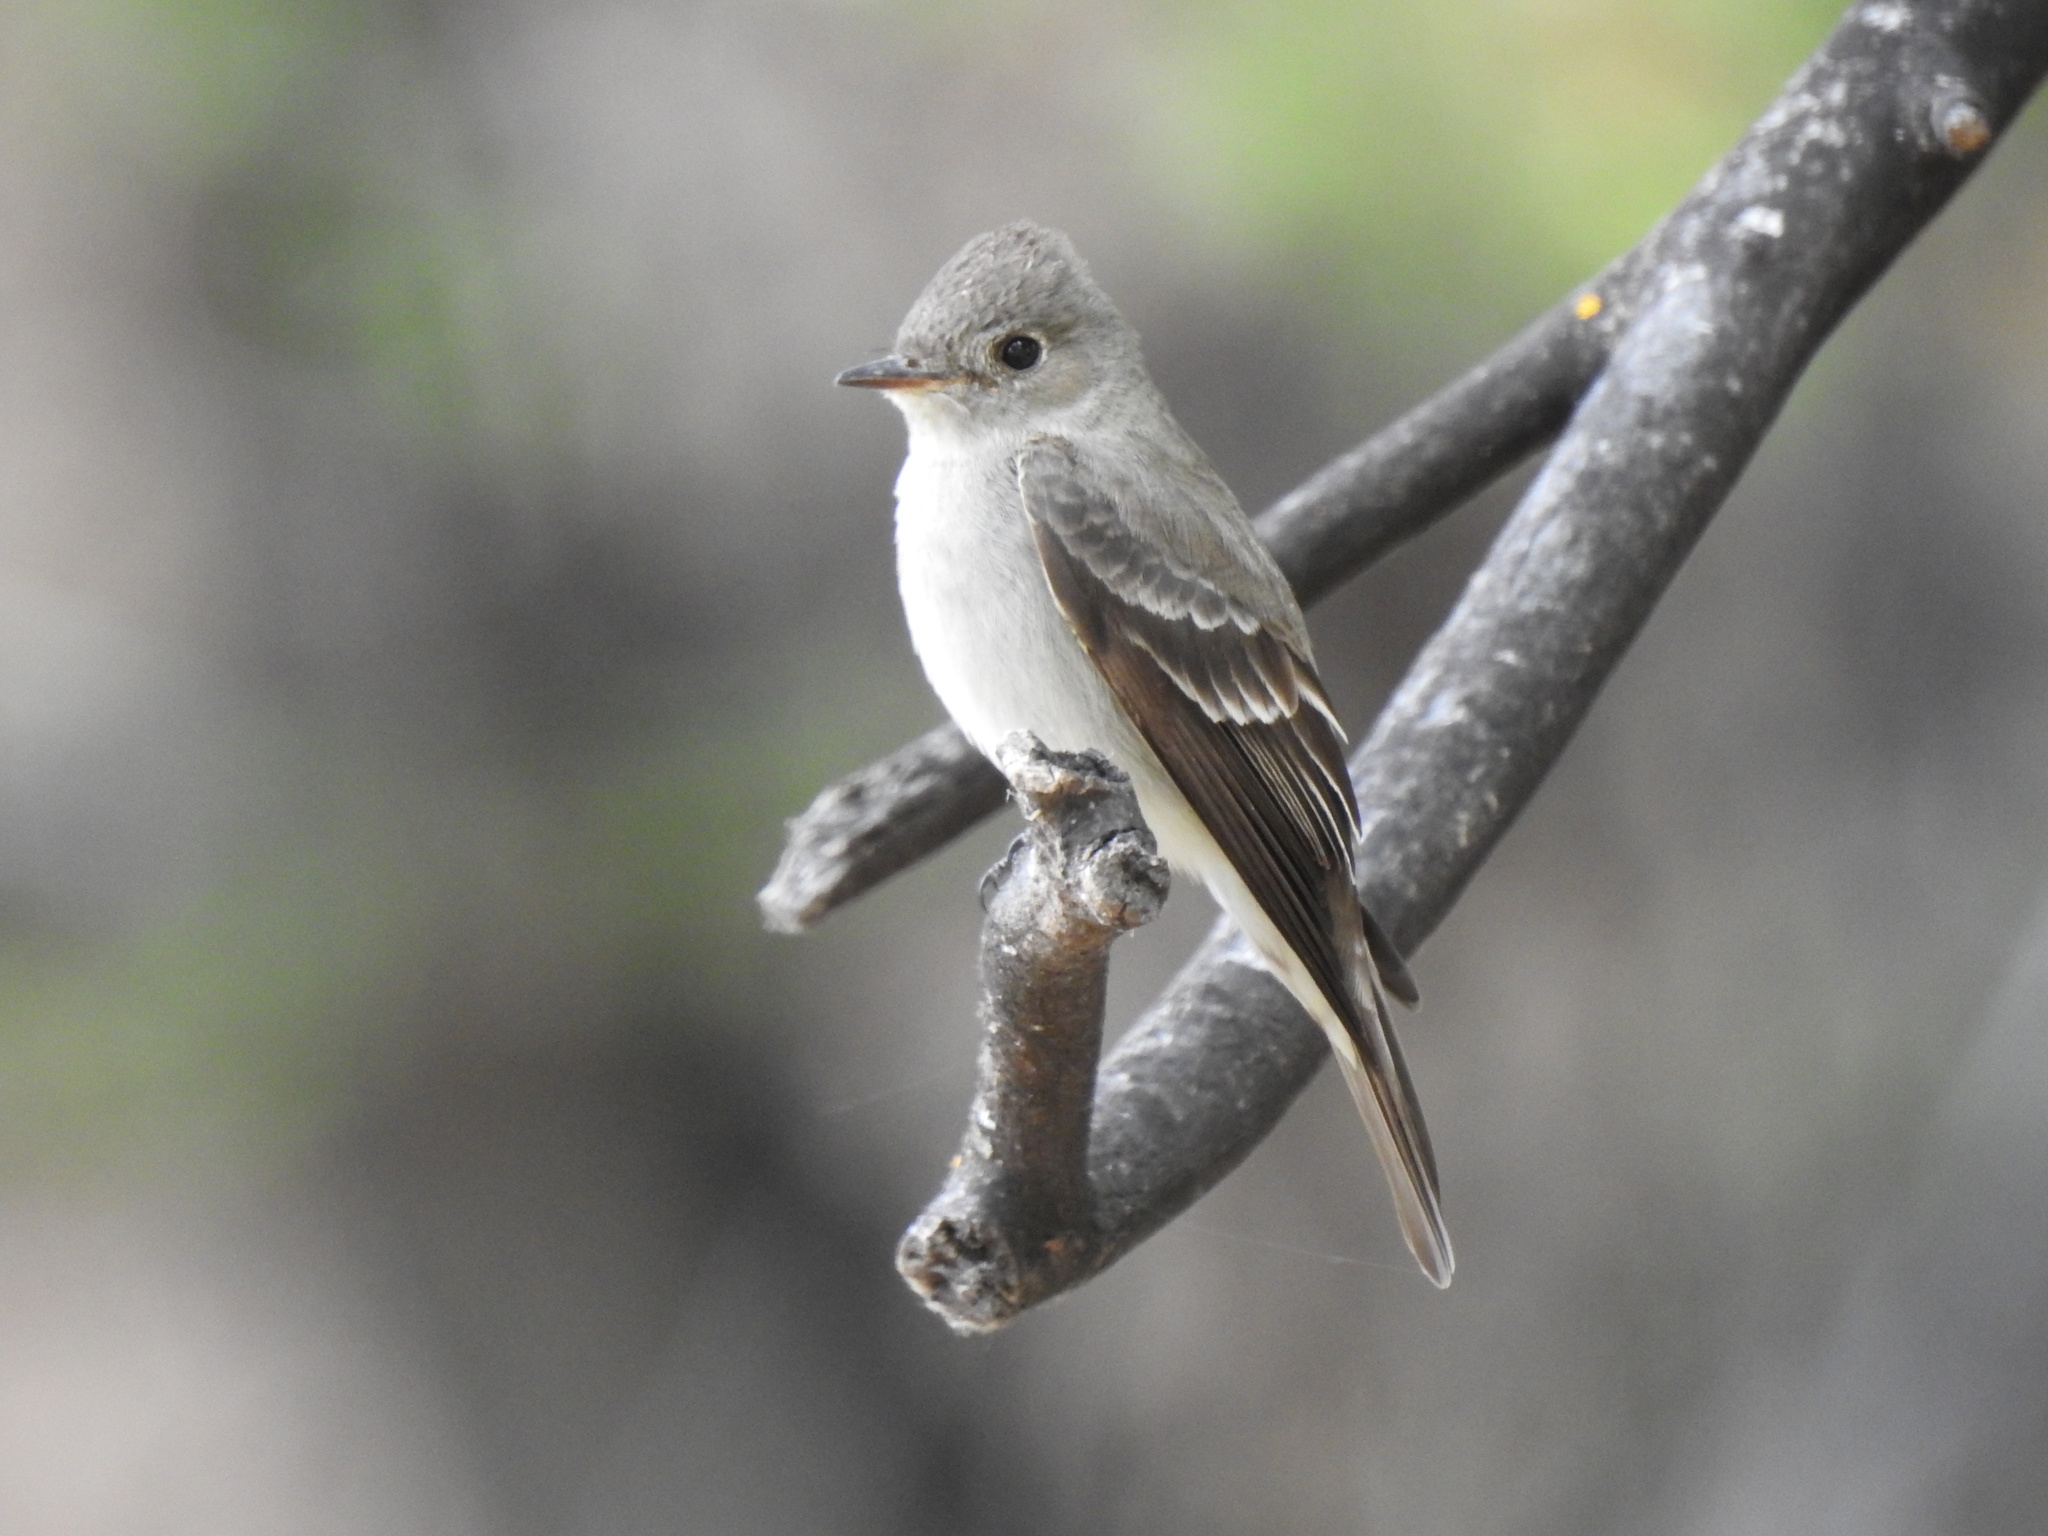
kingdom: Animalia
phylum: Chordata
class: Aves
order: Passeriformes
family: Tyrannidae
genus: Contopus
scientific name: Contopus sordidulus
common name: Western wood-pewee
